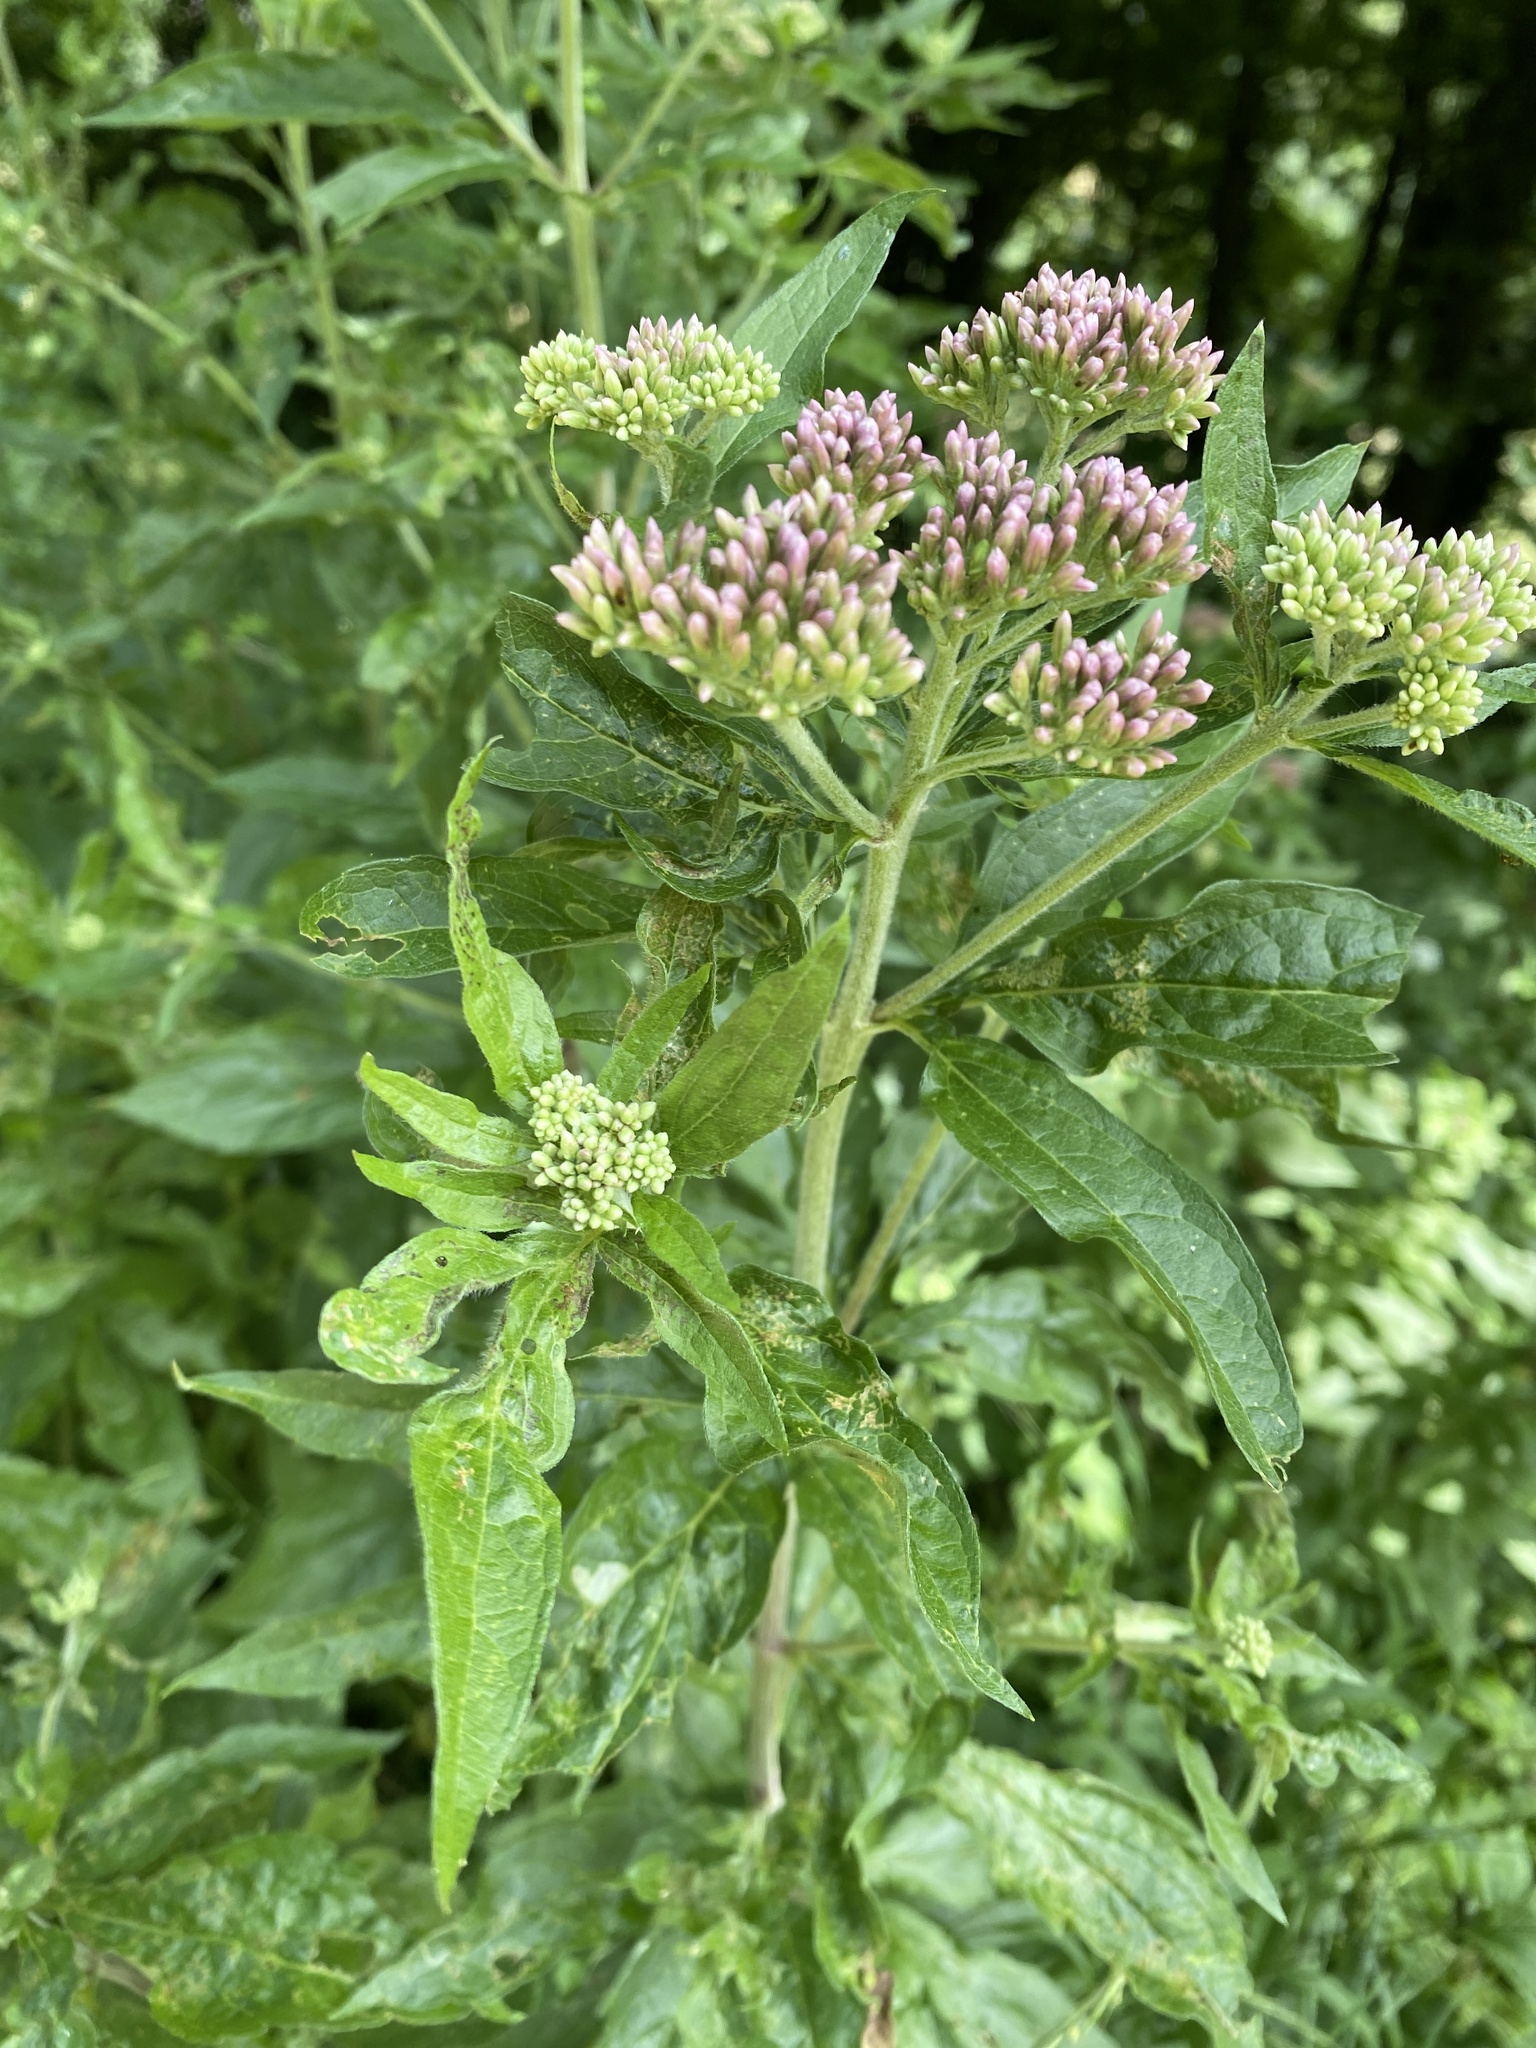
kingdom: Plantae
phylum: Tracheophyta
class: Magnoliopsida
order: Asterales
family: Asteraceae
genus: Eupatorium
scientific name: Eupatorium cannabinum
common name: Hemp-agrimony
